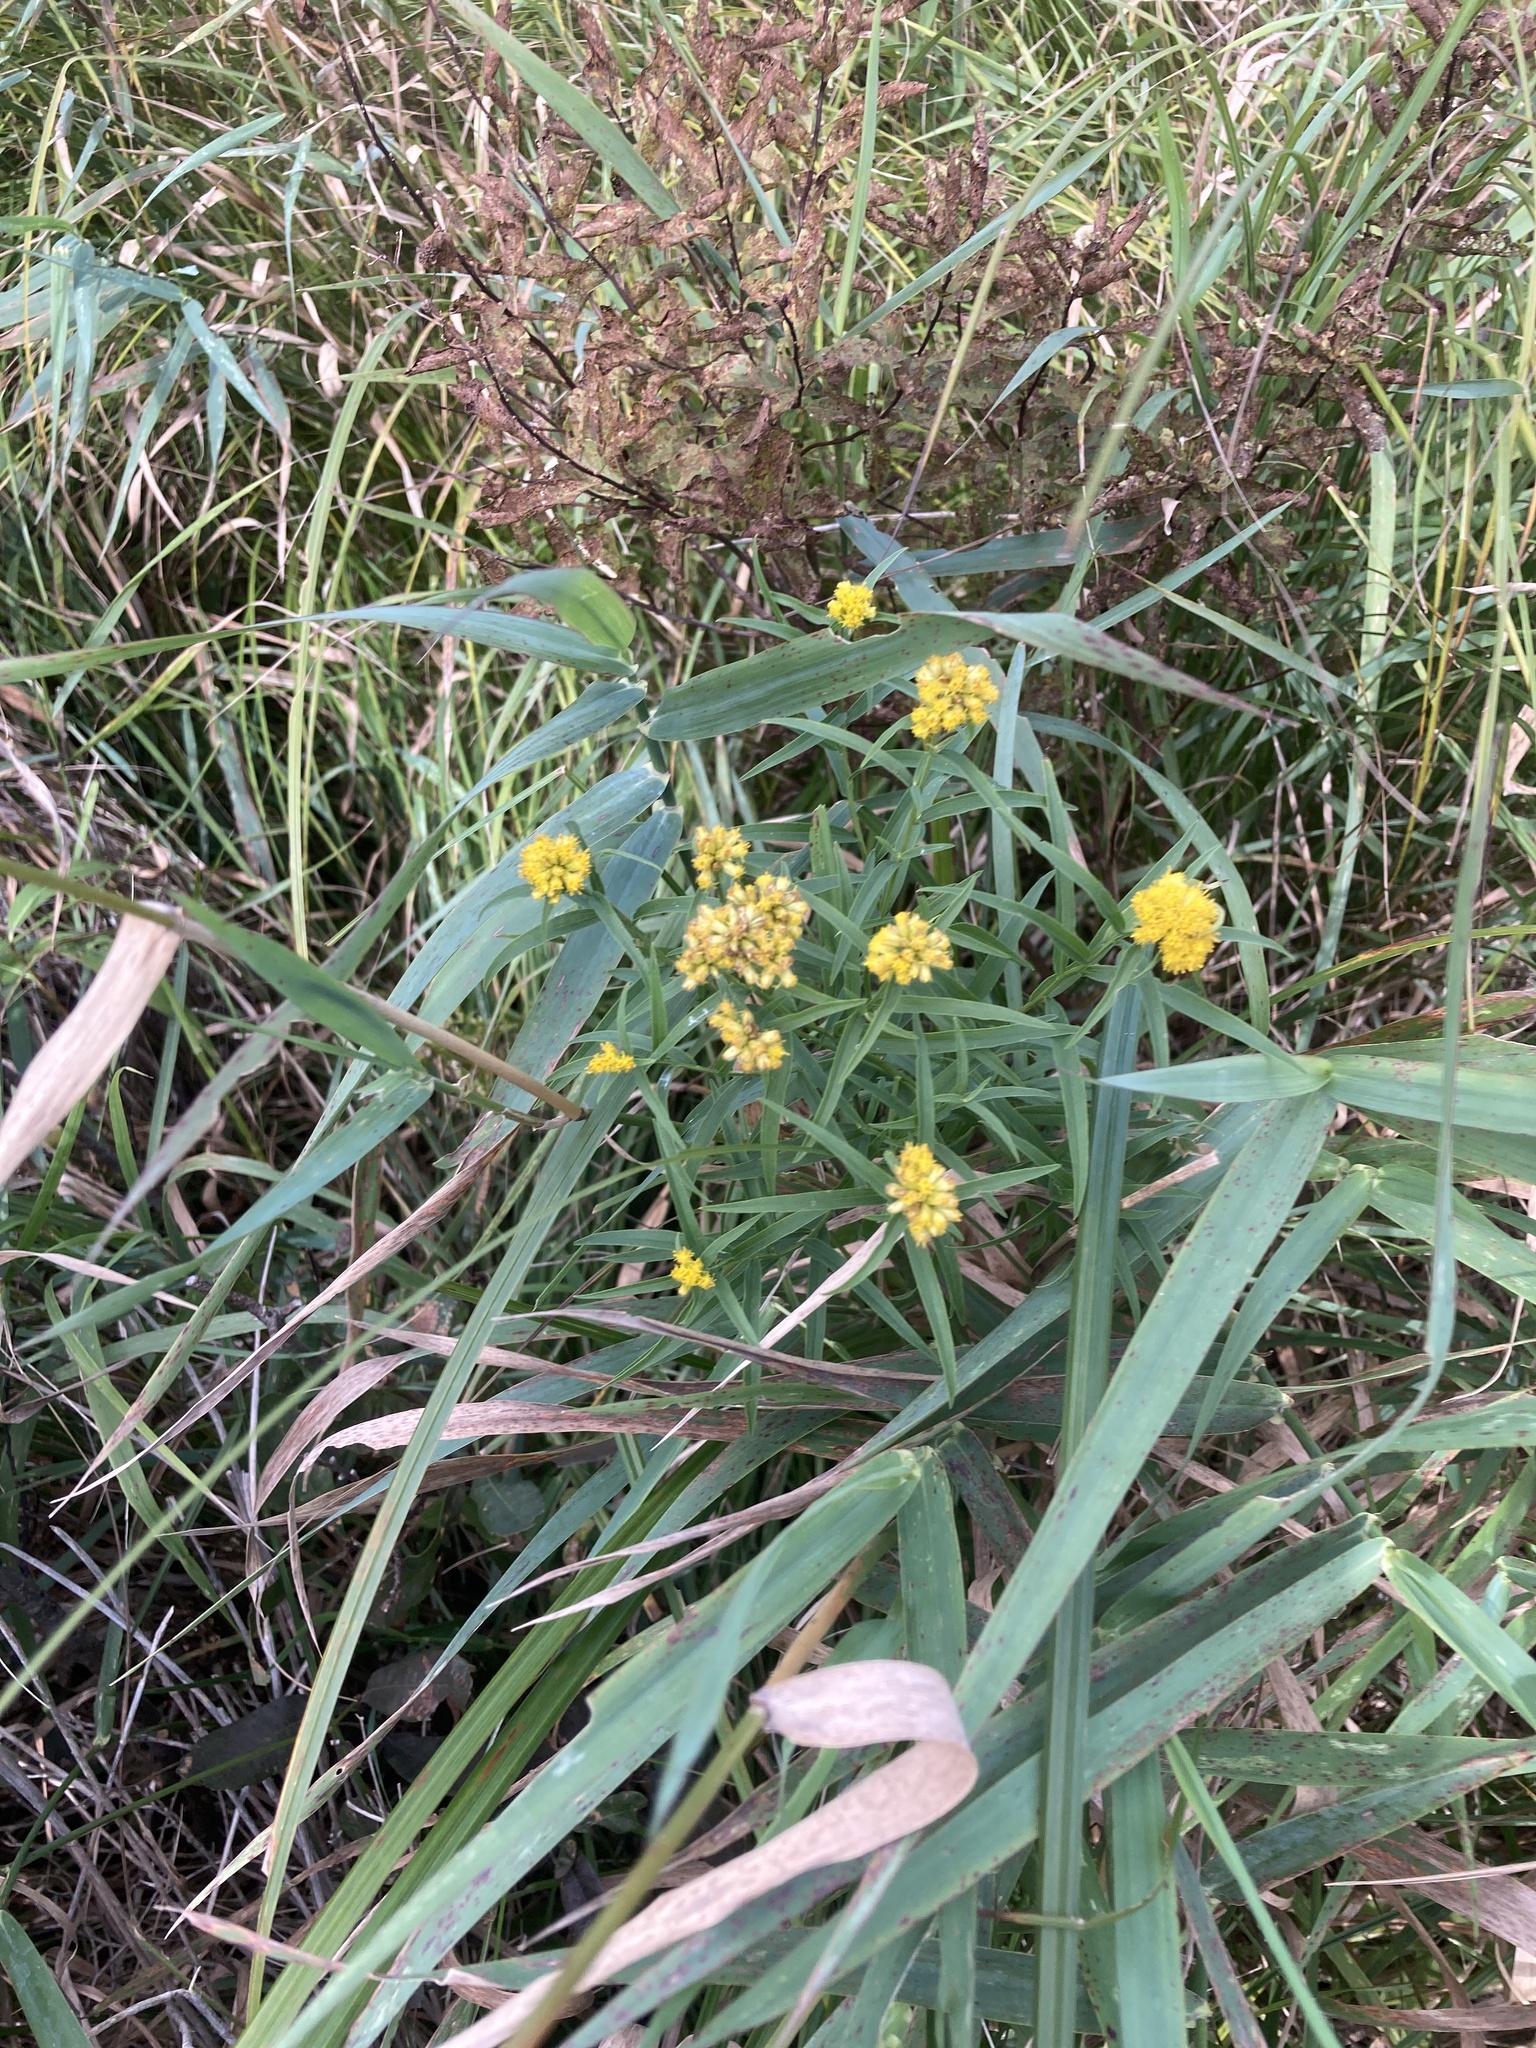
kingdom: Plantae
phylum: Tracheophyta
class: Magnoliopsida
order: Asterales
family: Asteraceae
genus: Euthamia
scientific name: Euthamia graminifolia
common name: Common goldentop
